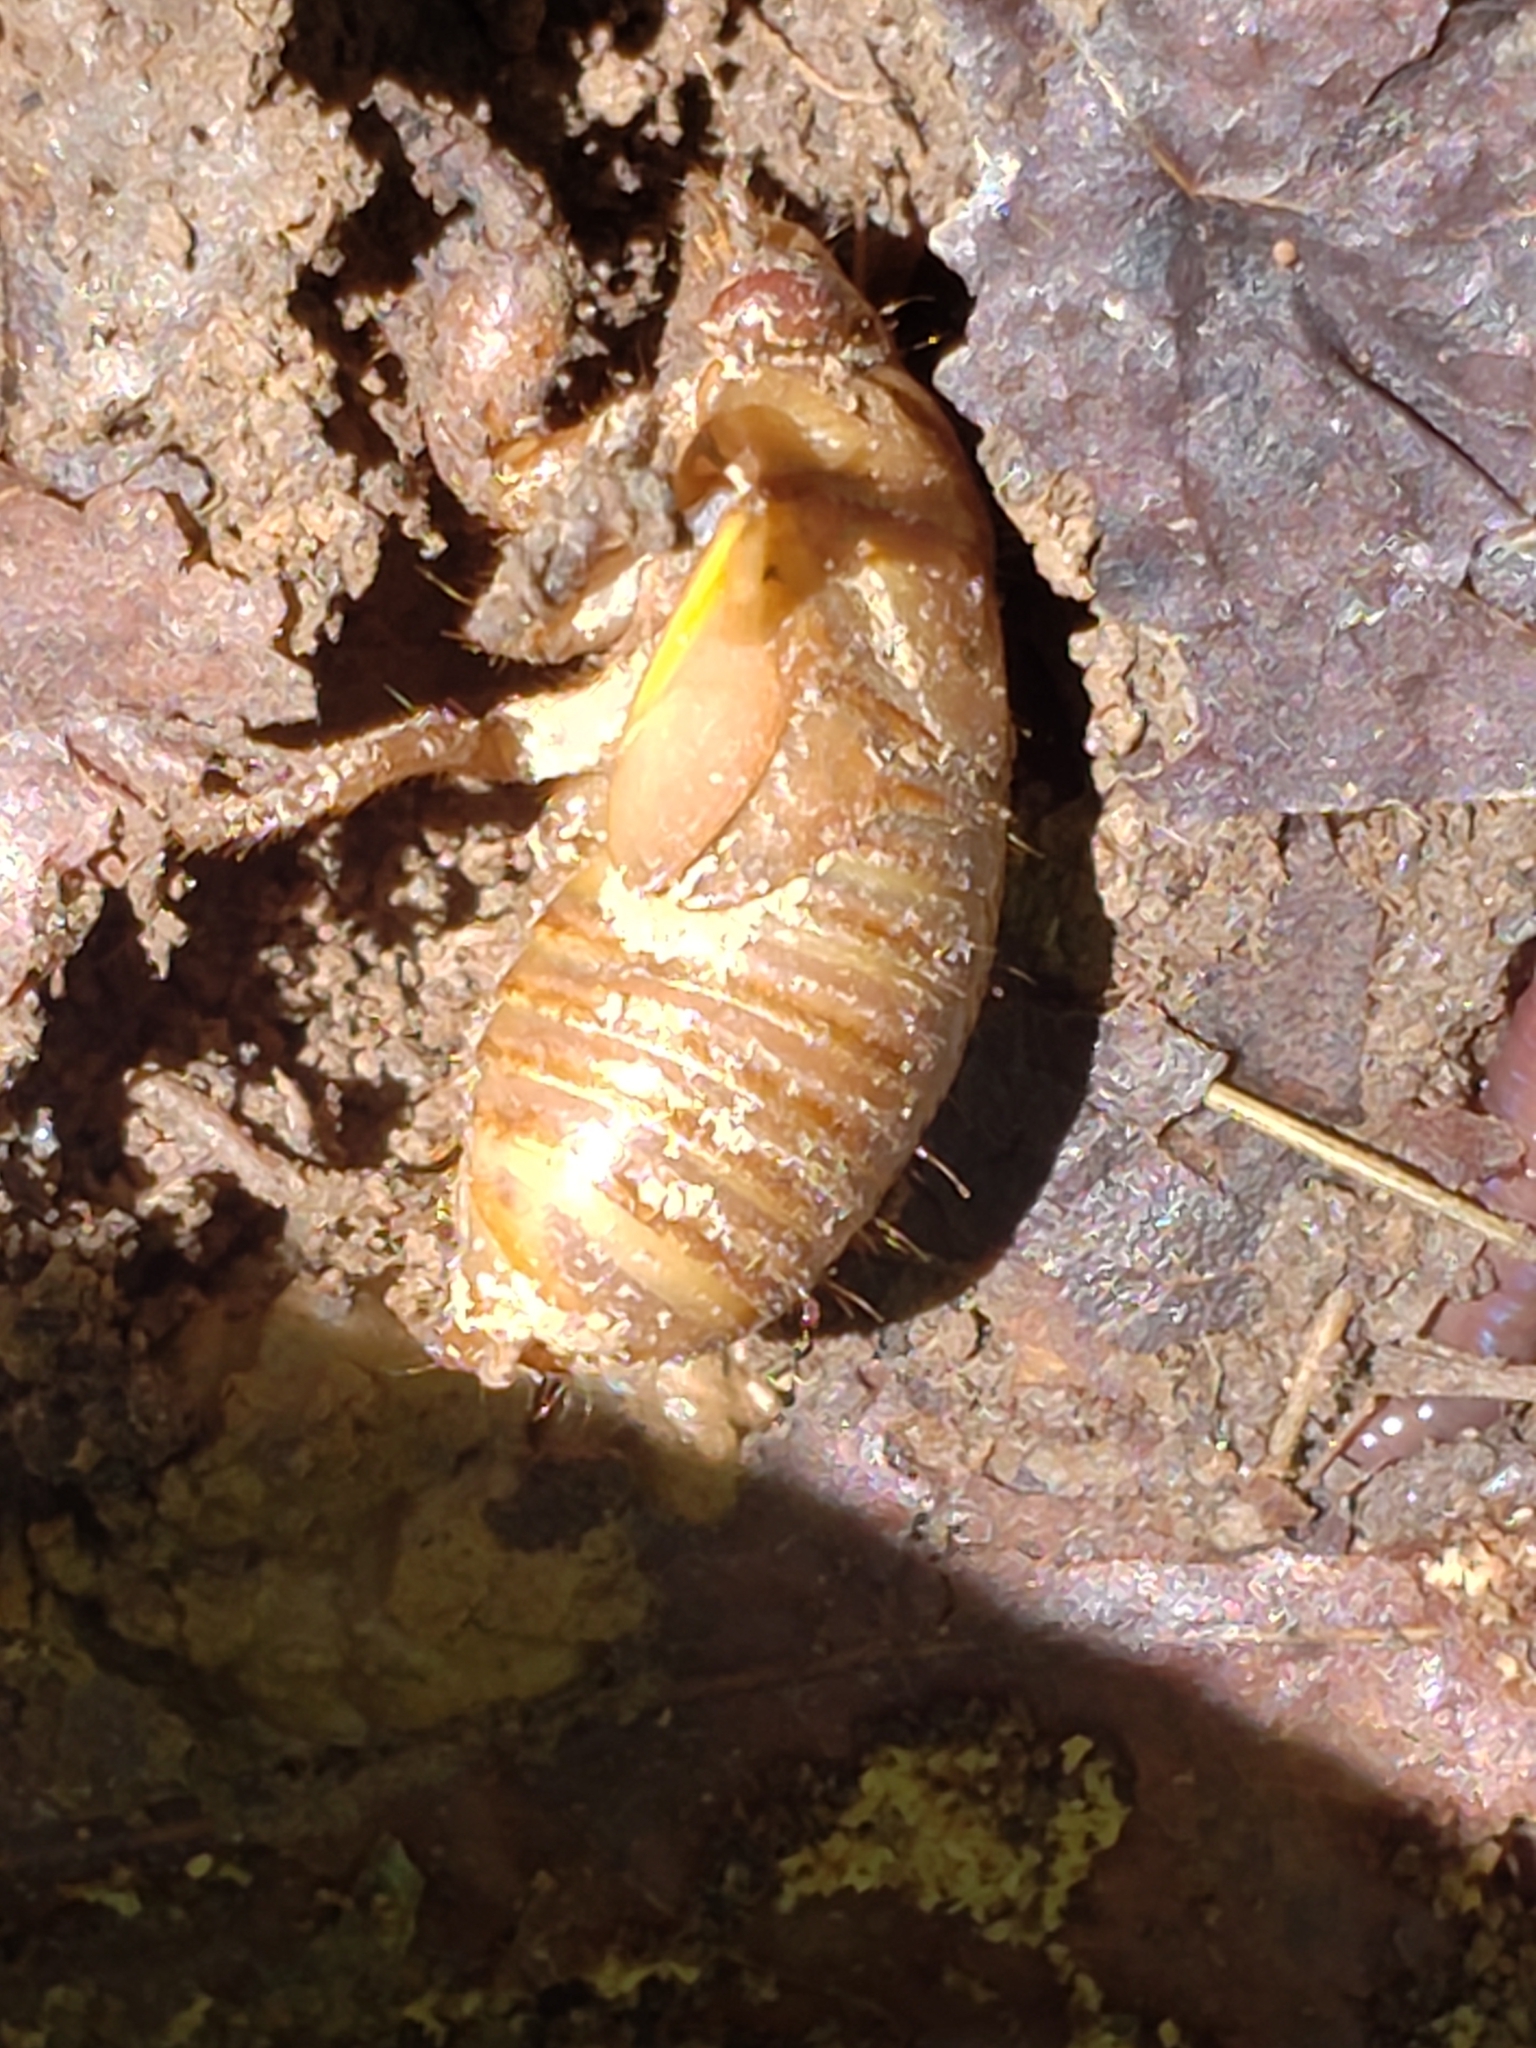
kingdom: Animalia
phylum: Arthropoda
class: Insecta
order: Hemiptera
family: Cicadidae
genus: Magicicada
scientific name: Magicicada
